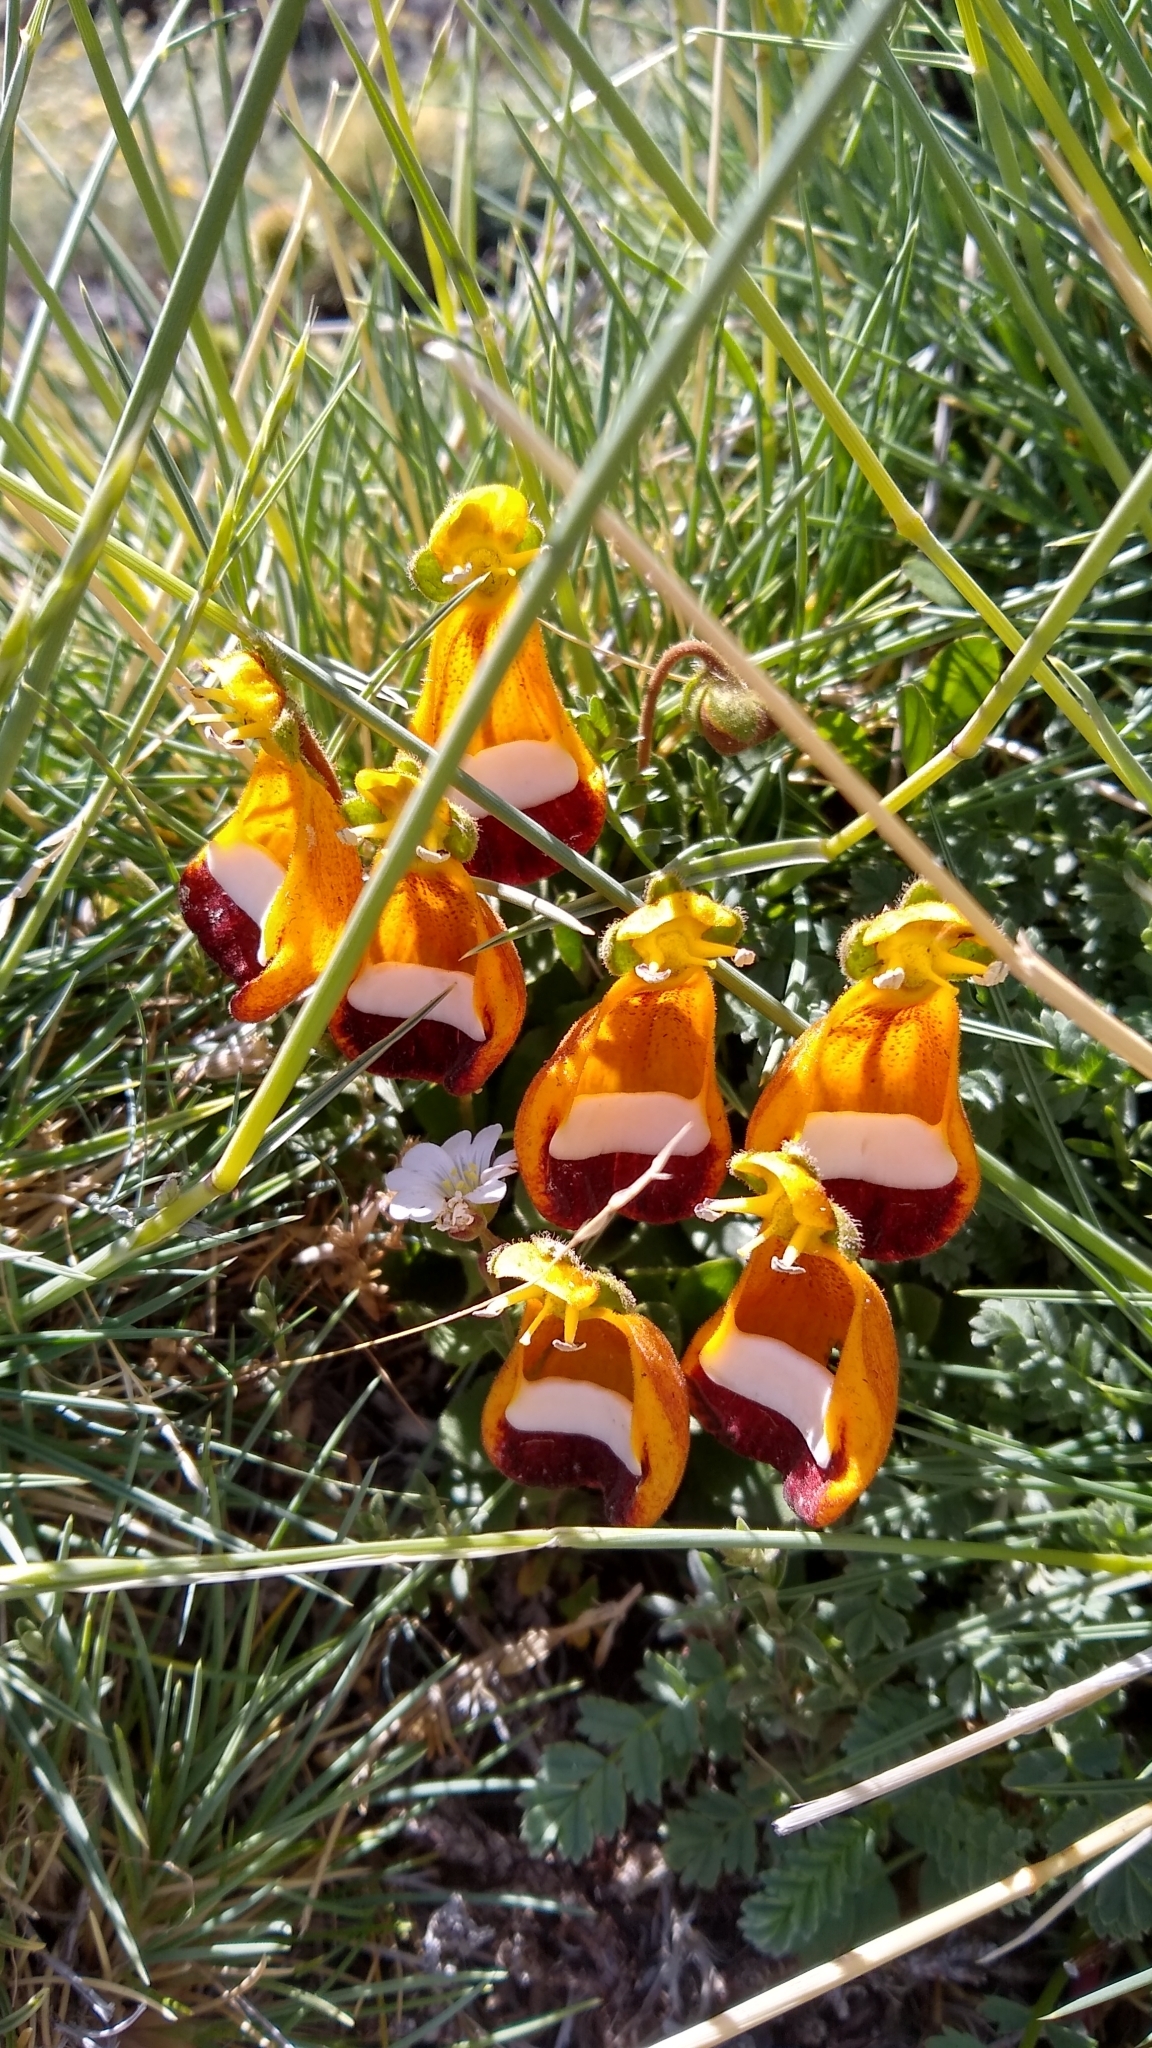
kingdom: Plantae
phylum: Tracheophyta
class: Magnoliopsida
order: Lamiales
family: Calceolariaceae
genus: Calceolaria
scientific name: Calceolaria uniflora
